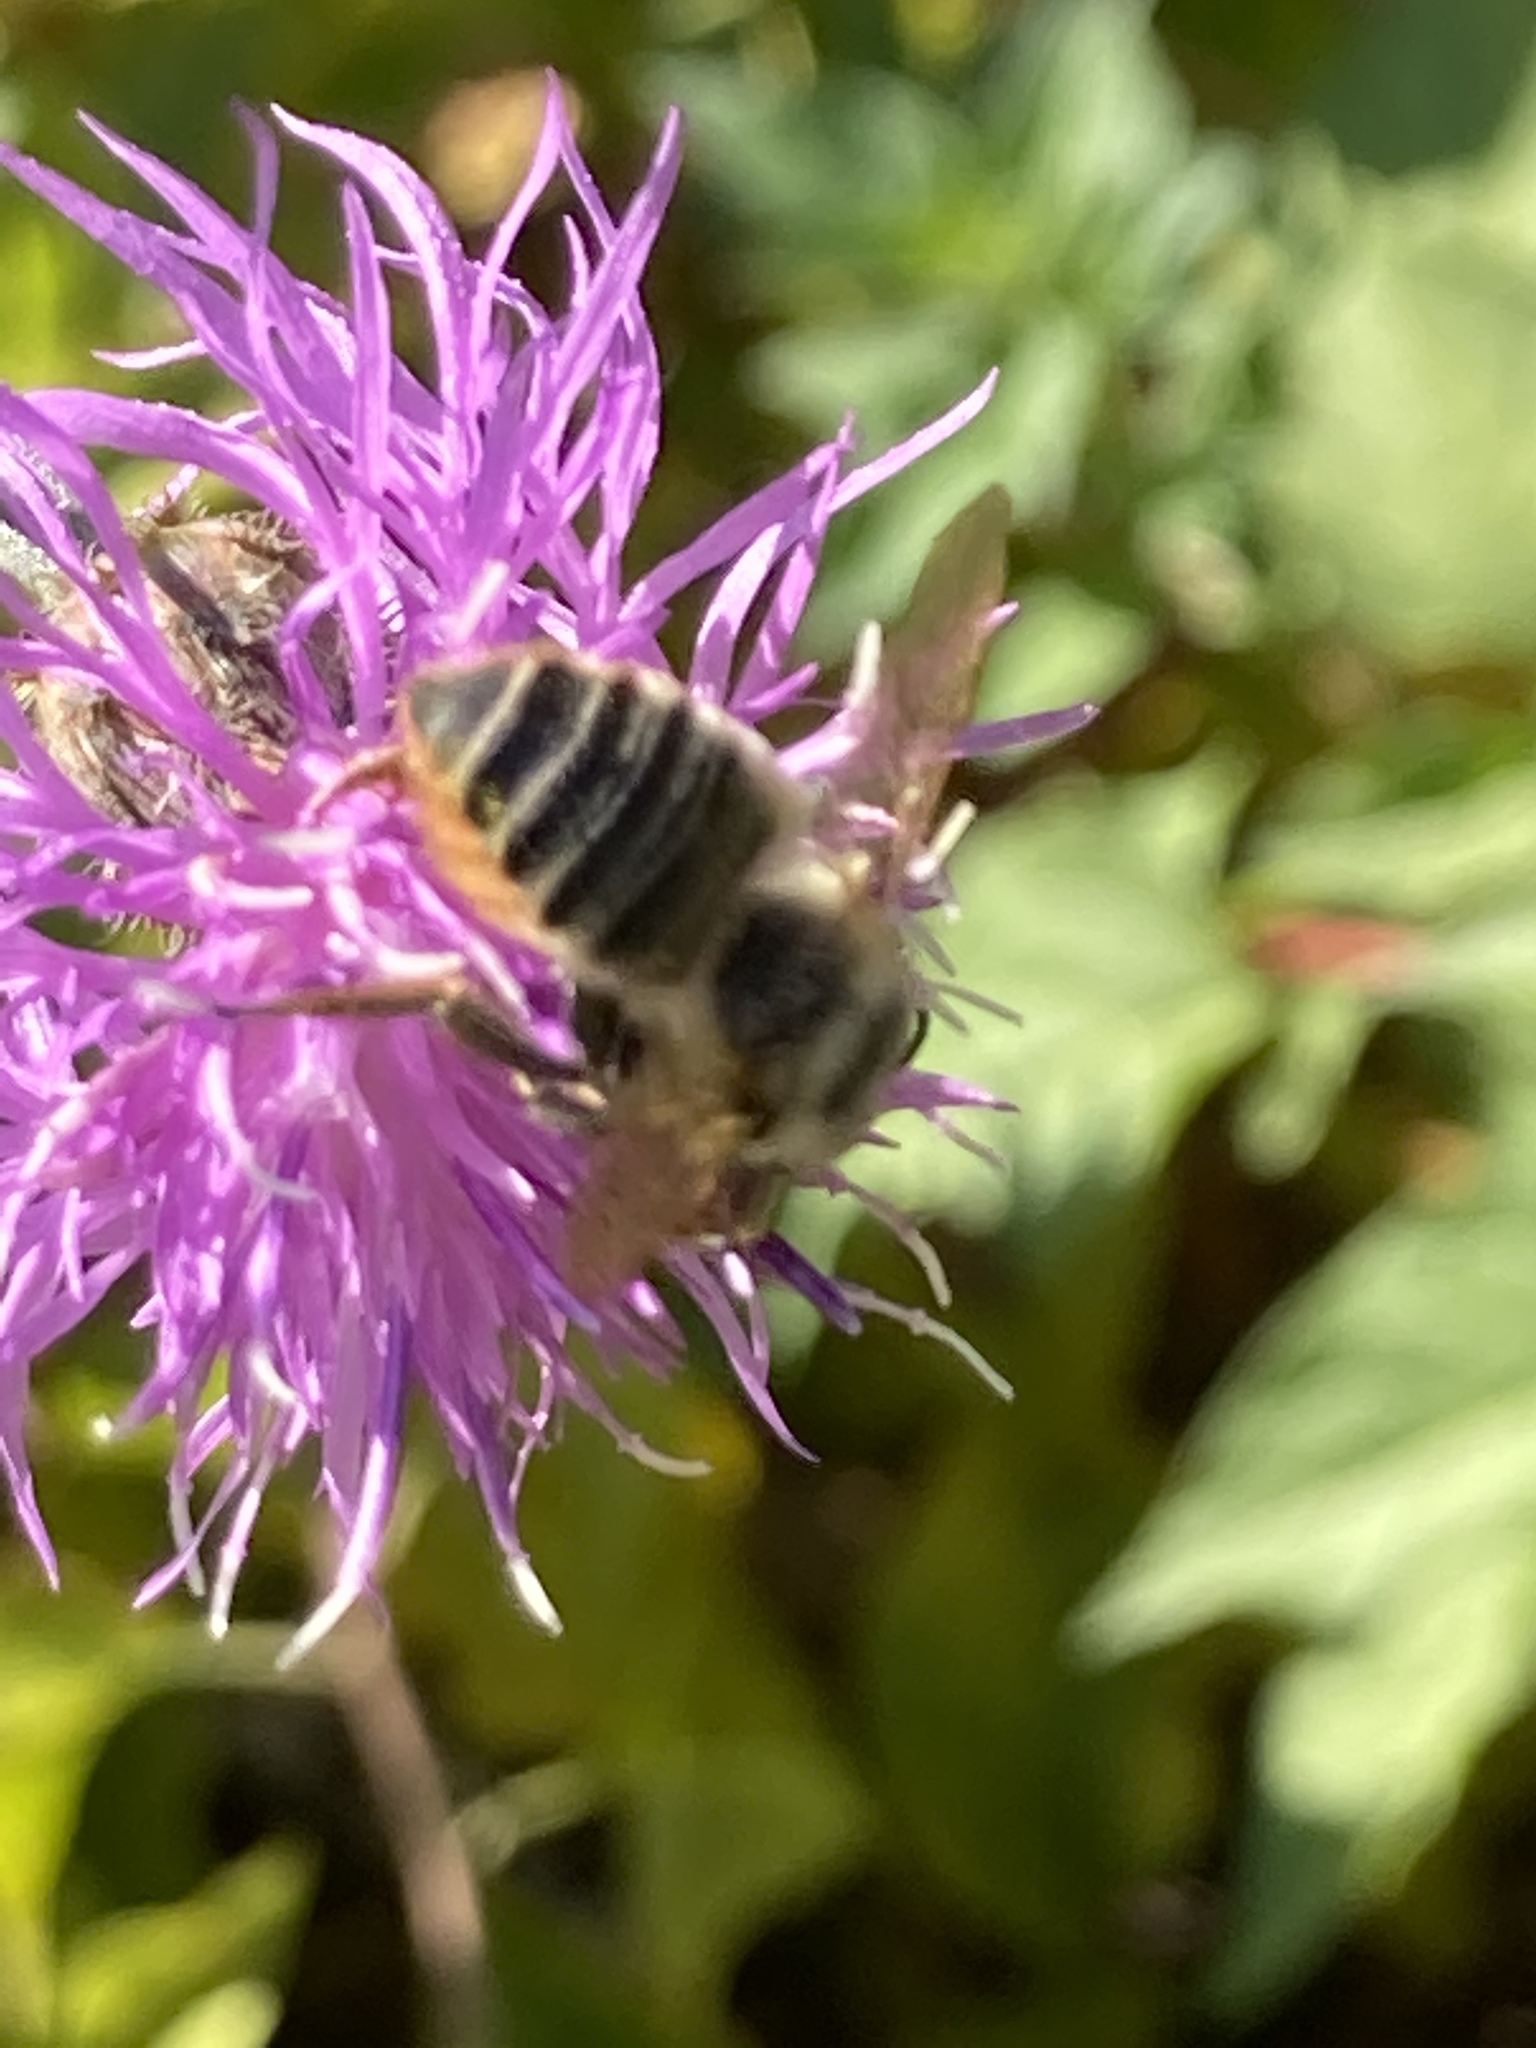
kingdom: Animalia
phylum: Arthropoda
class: Insecta
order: Hymenoptera
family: Megachilidae
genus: Megachile
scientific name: Megachile latimanus
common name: Leafcutting bee
